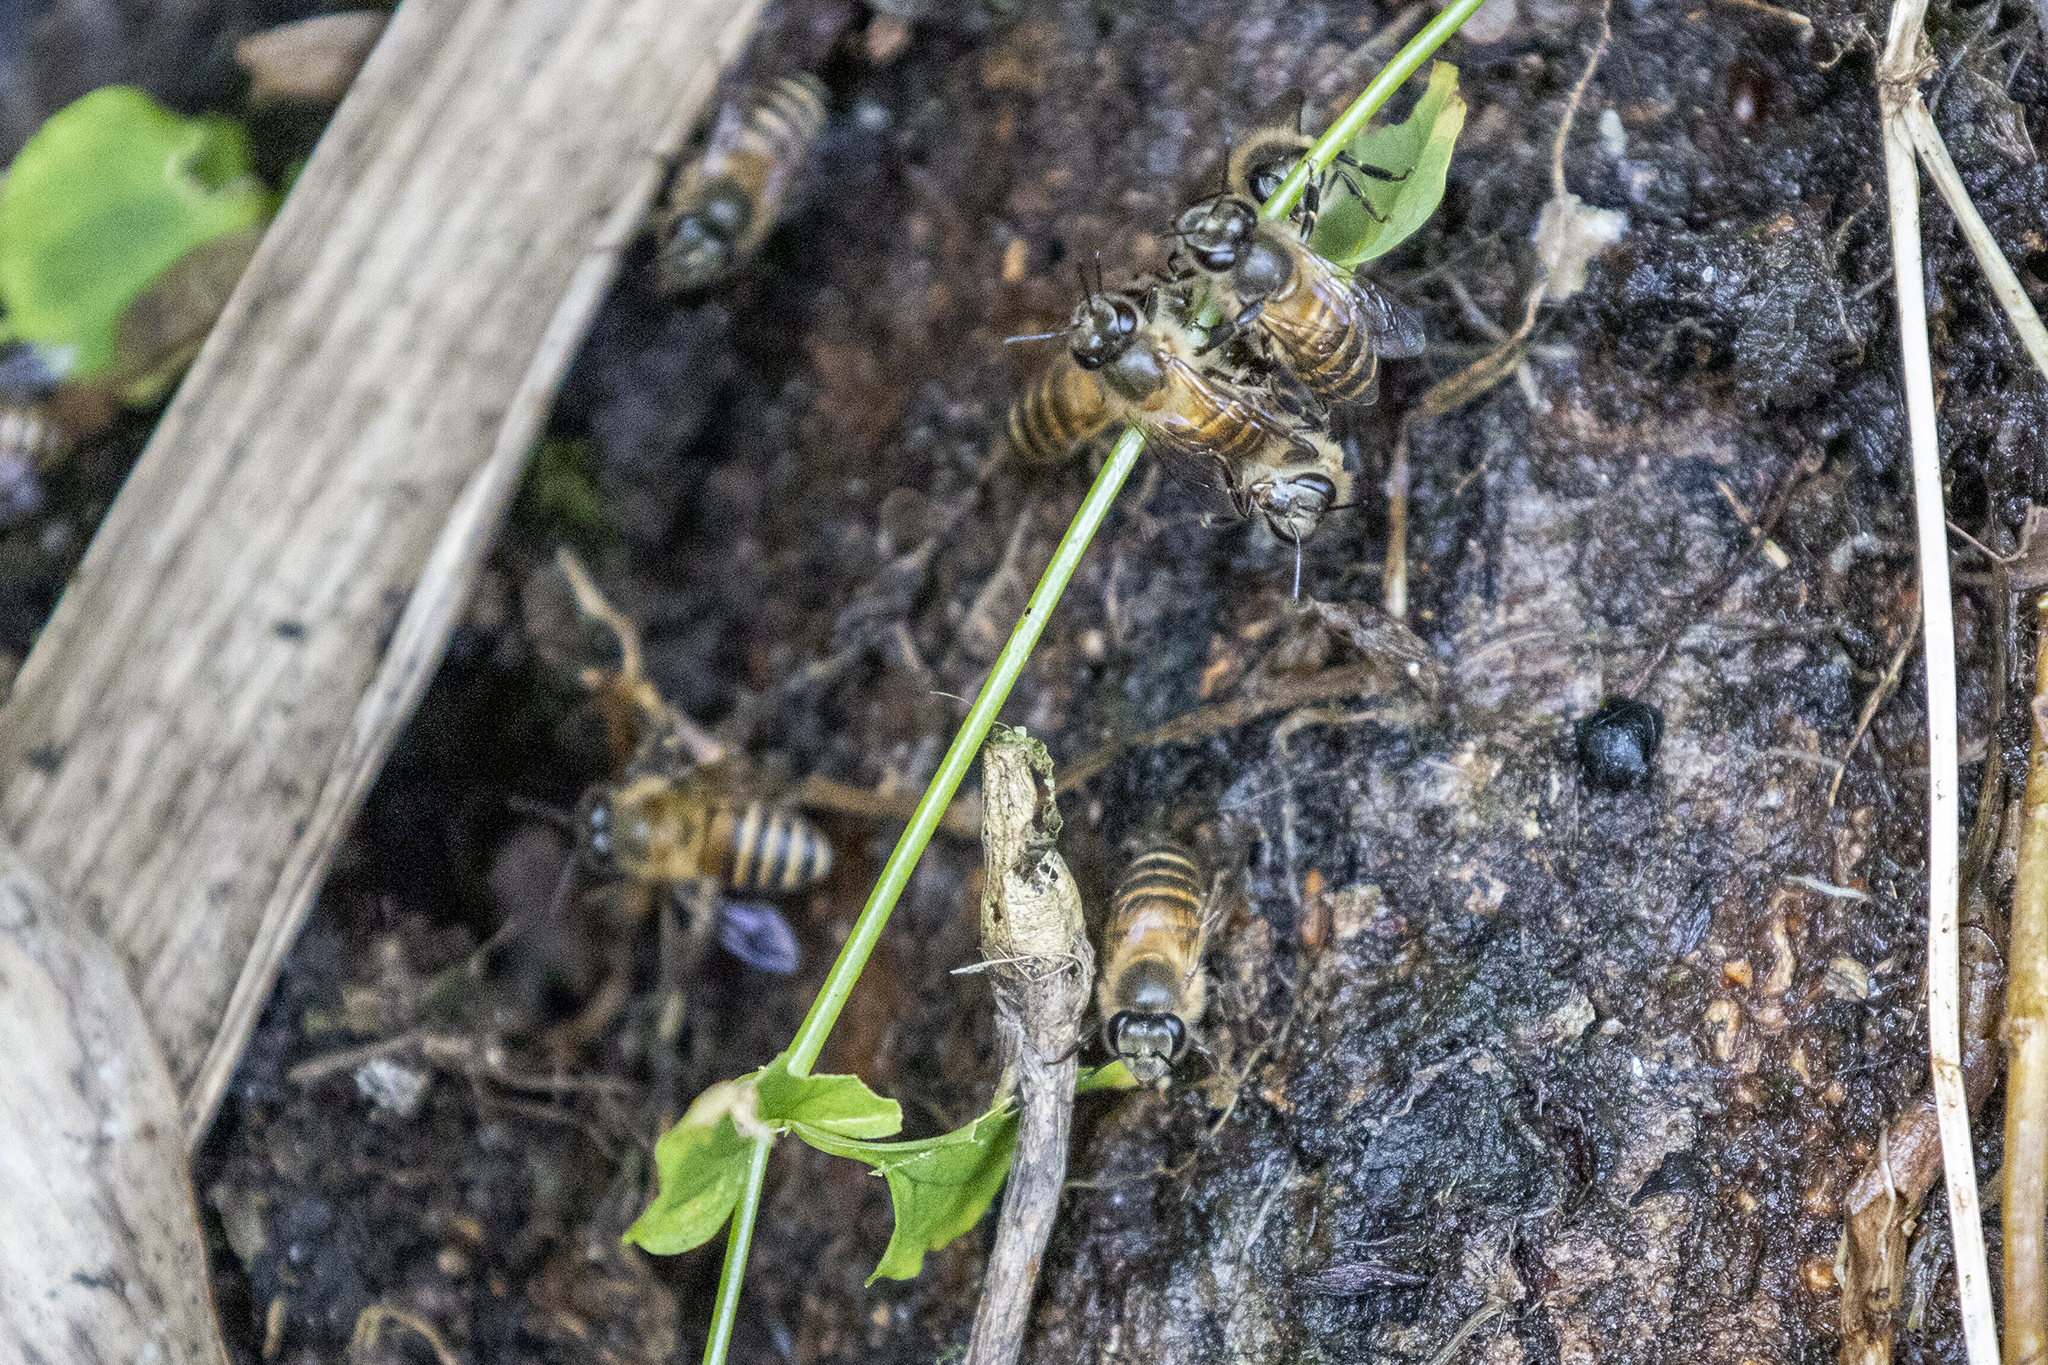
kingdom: Animalia
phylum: Arthropoda
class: Insecta
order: Hymenoptera
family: Apidae
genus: Apis
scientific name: Apis cerana
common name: Honey bee
